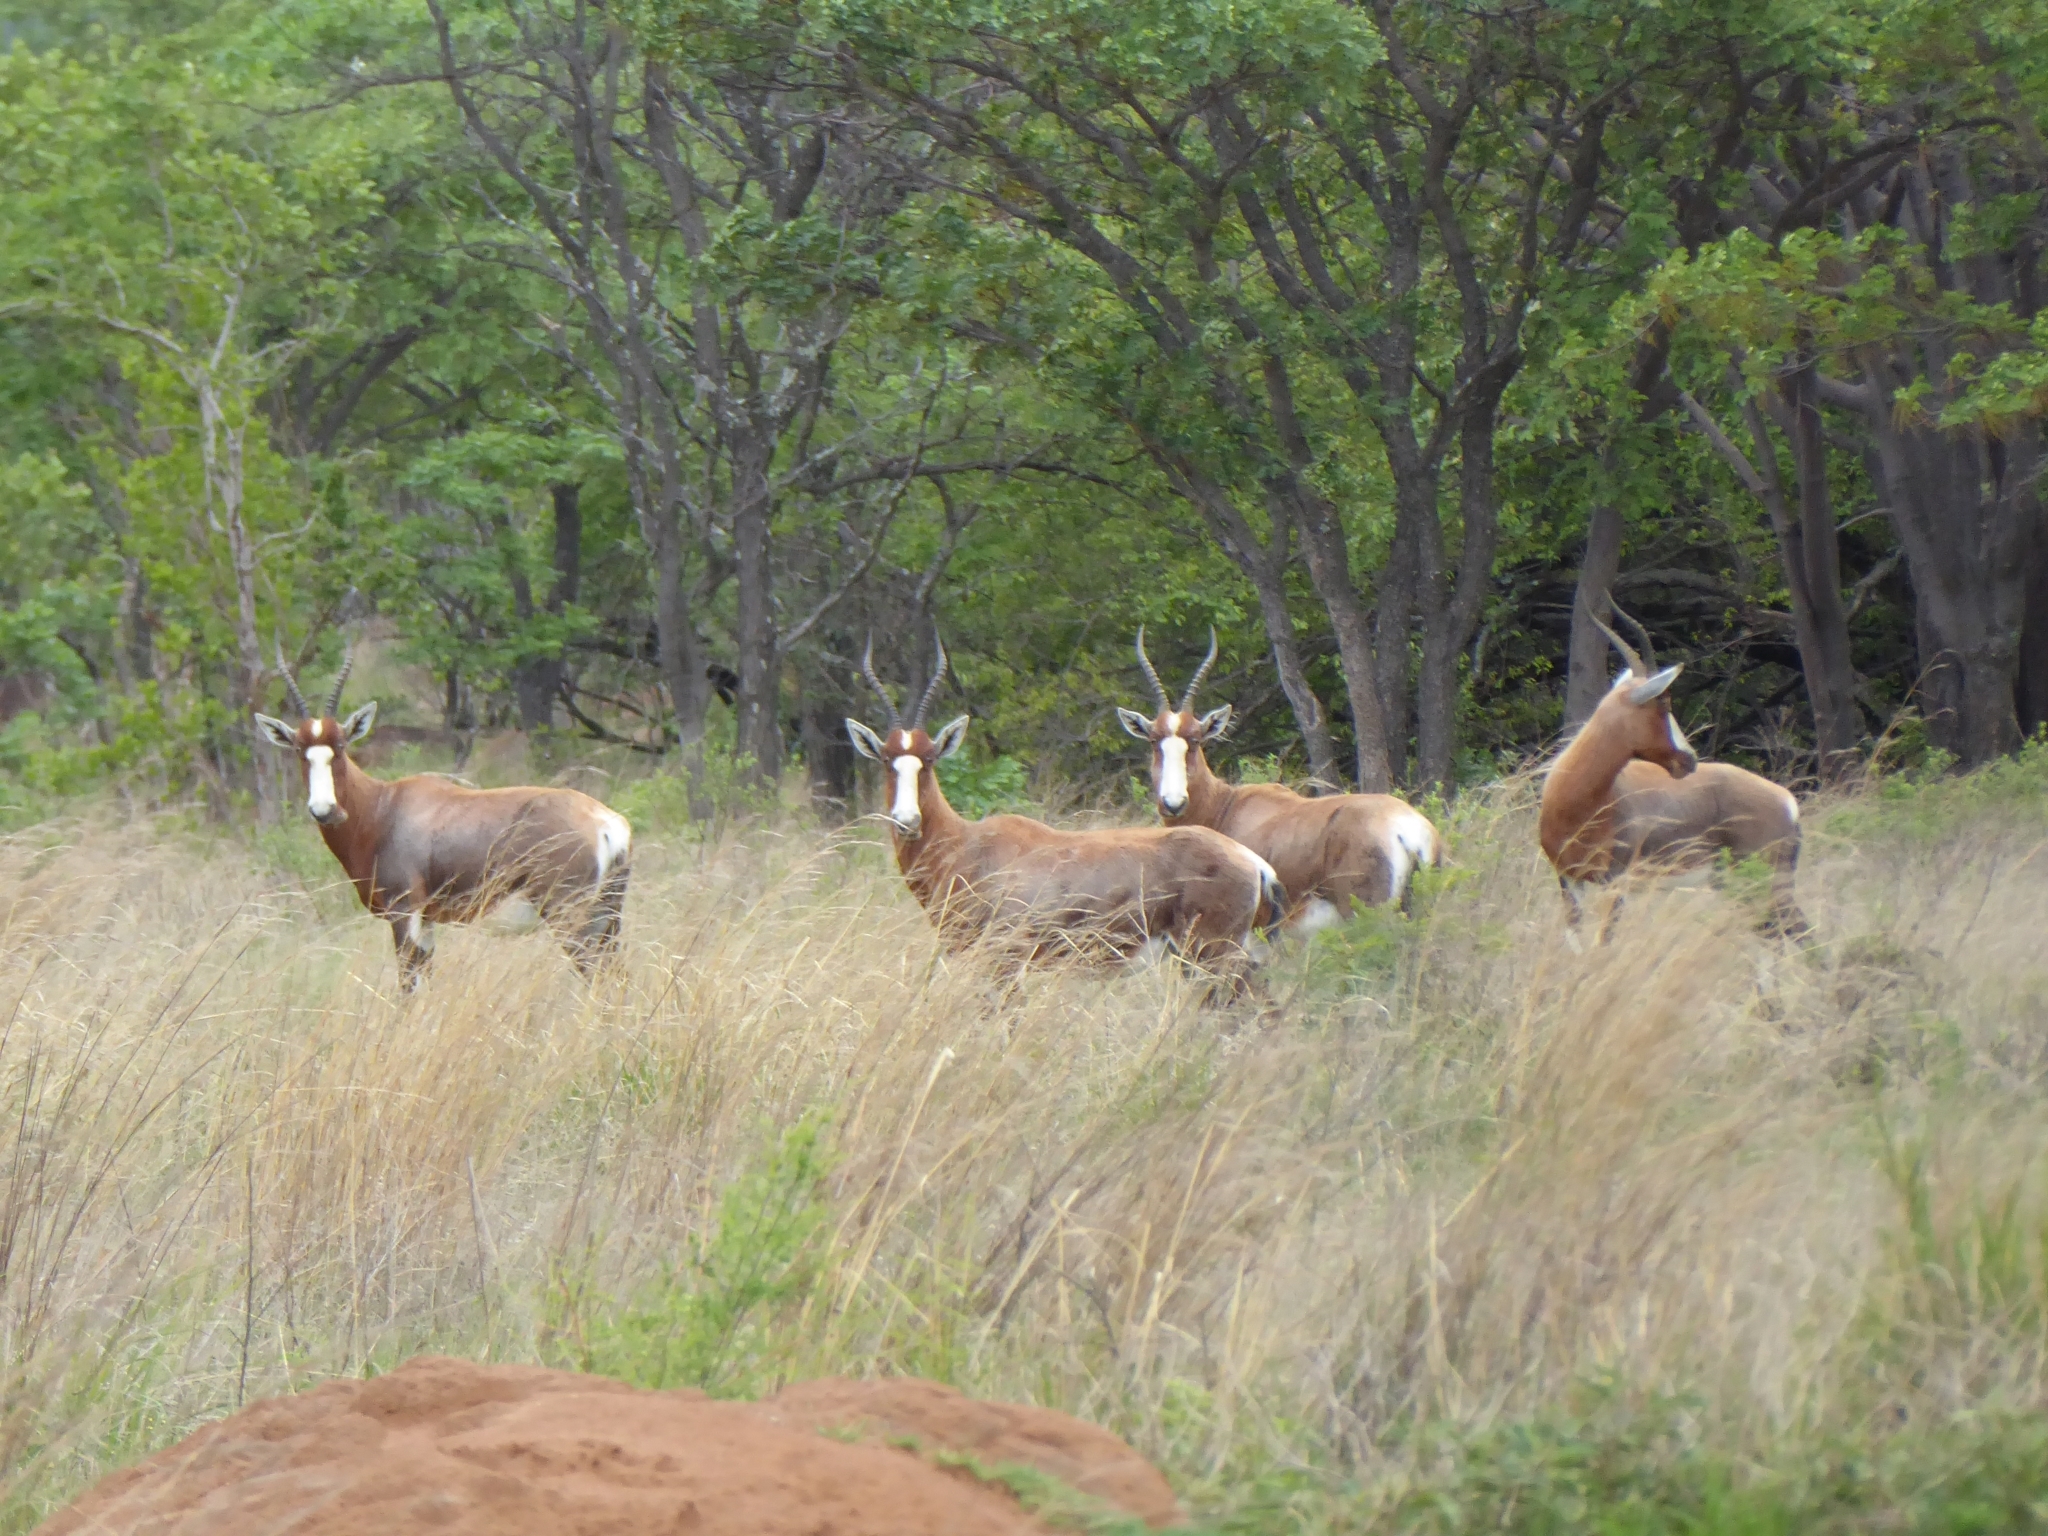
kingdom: Animalia
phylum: Chordata
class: Mammalia
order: Artiodactyla
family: Bovidae
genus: Damaliscus
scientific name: Damaliscus pygargus
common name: Bontebok
